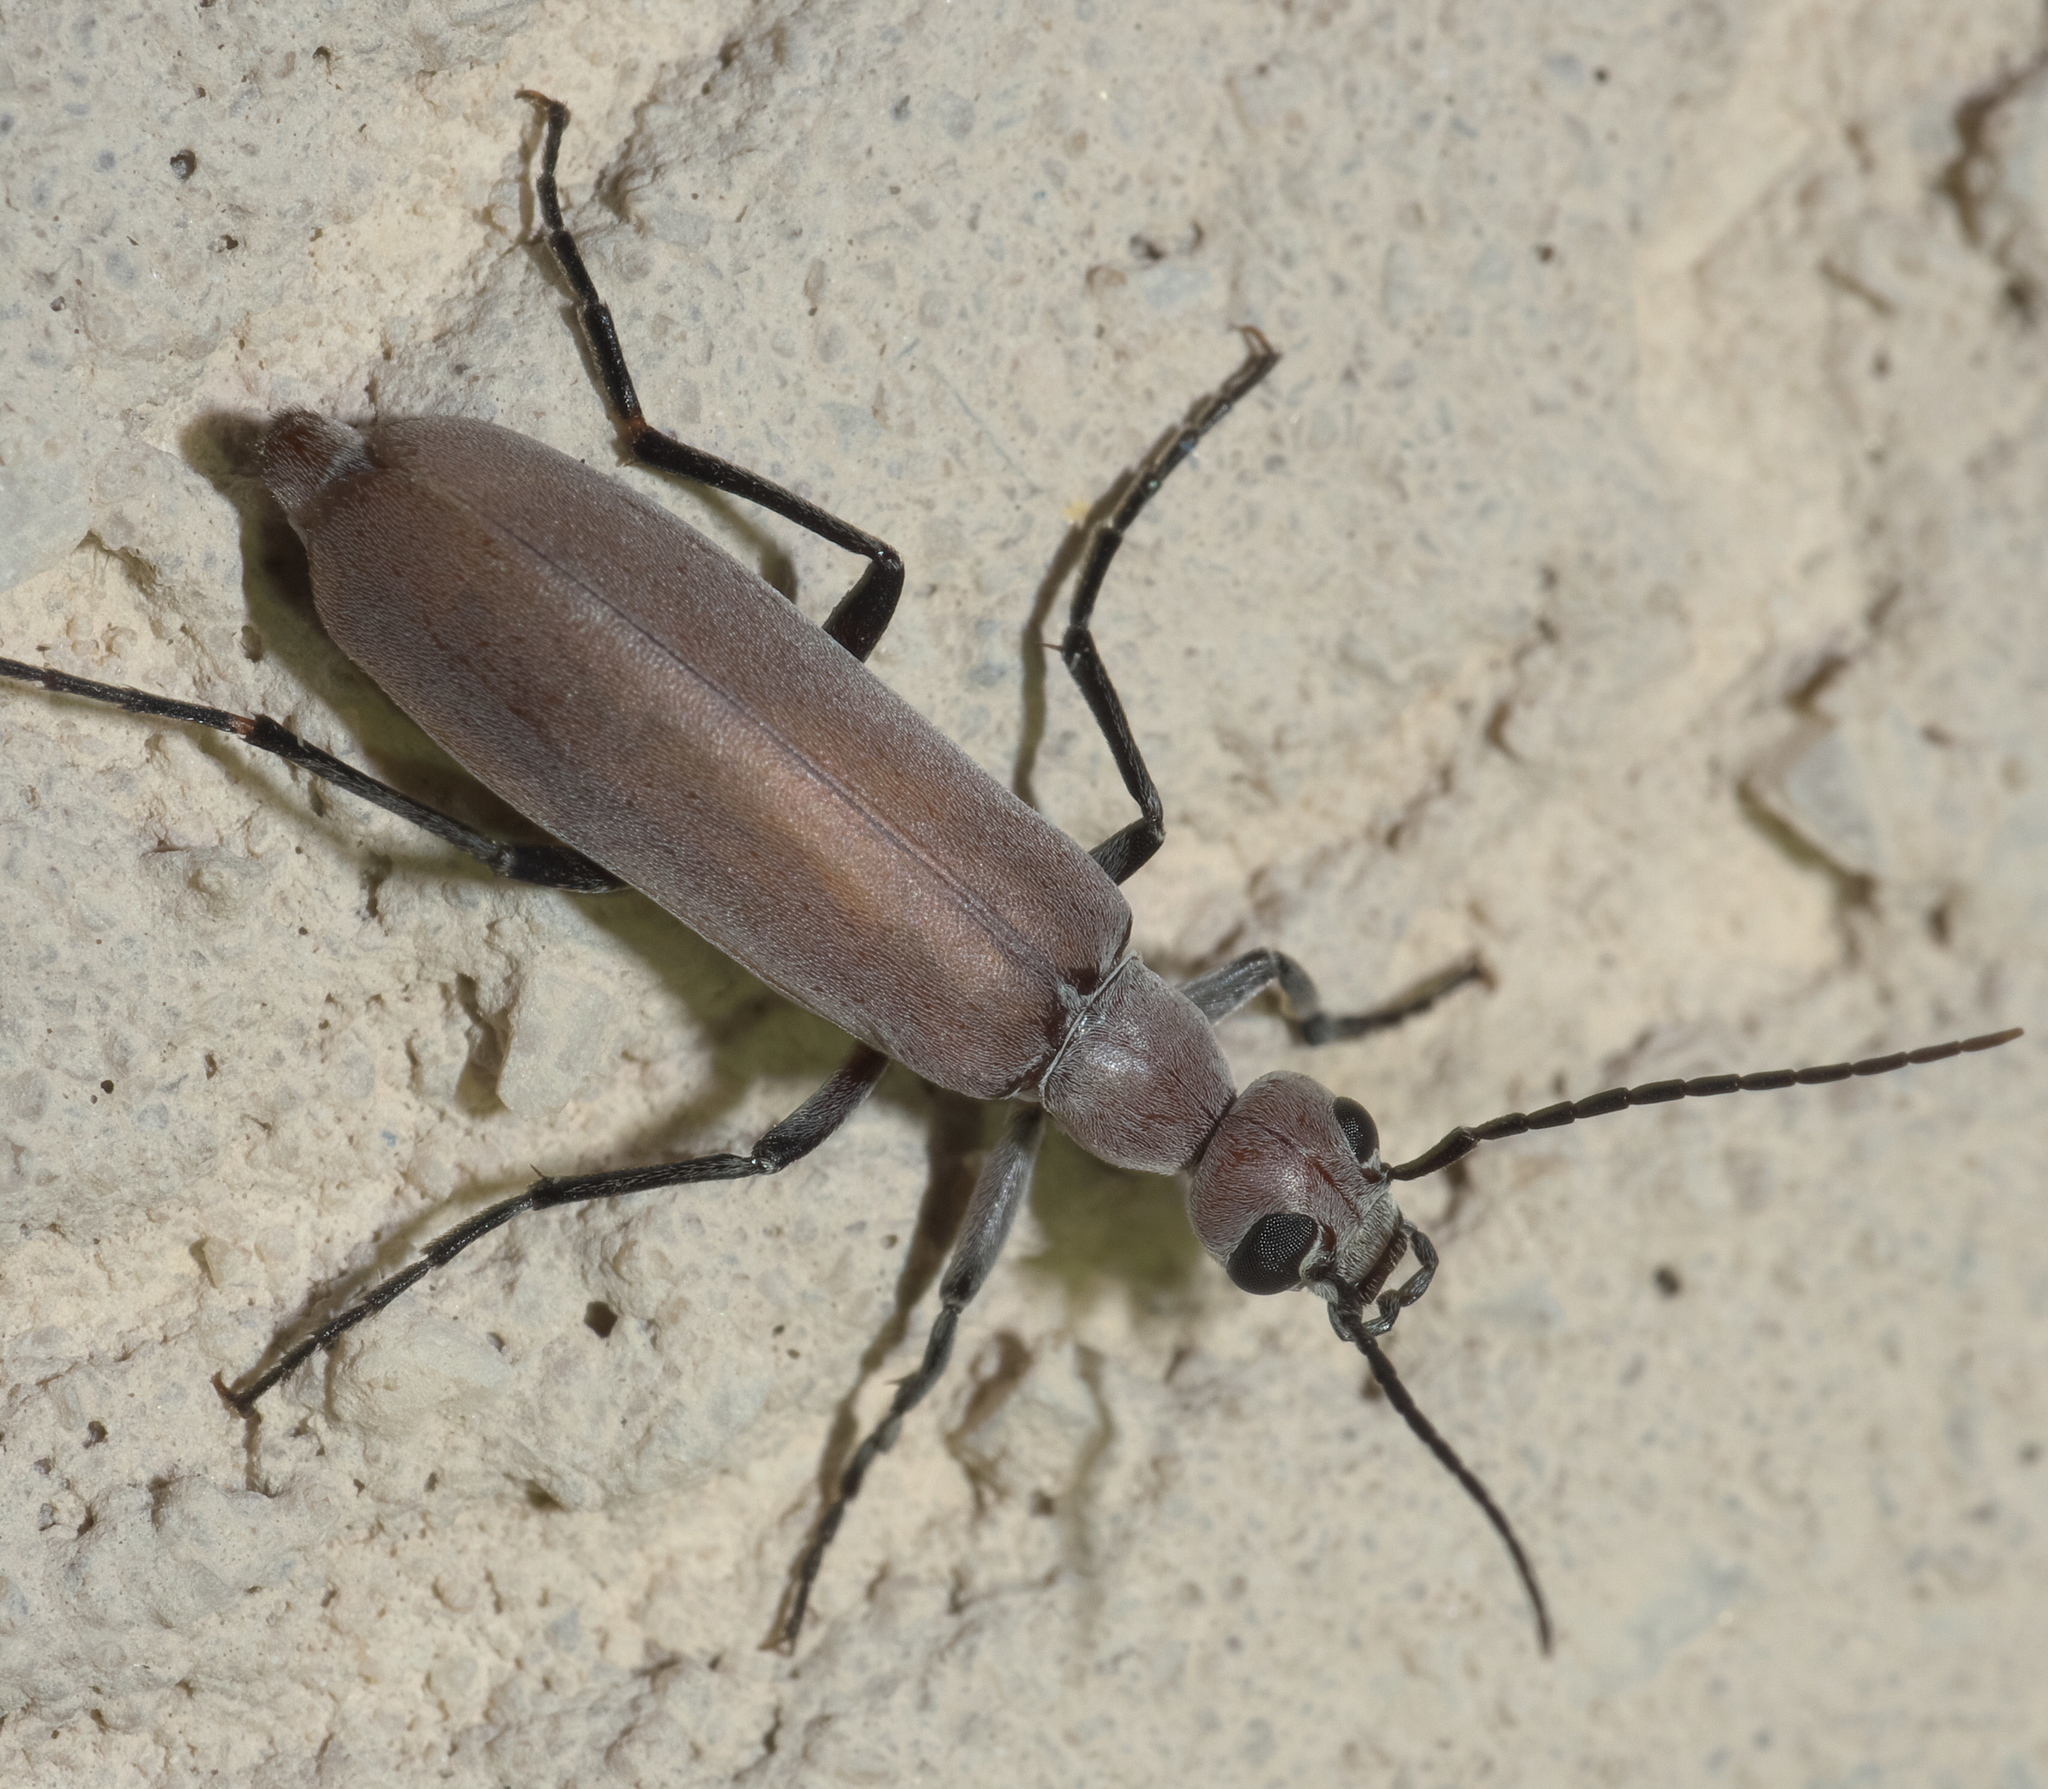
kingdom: Animalia
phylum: Arthropoda
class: Insecta
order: Coleoptera
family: Meloidae
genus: Epicauta
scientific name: Epicauta lauta
